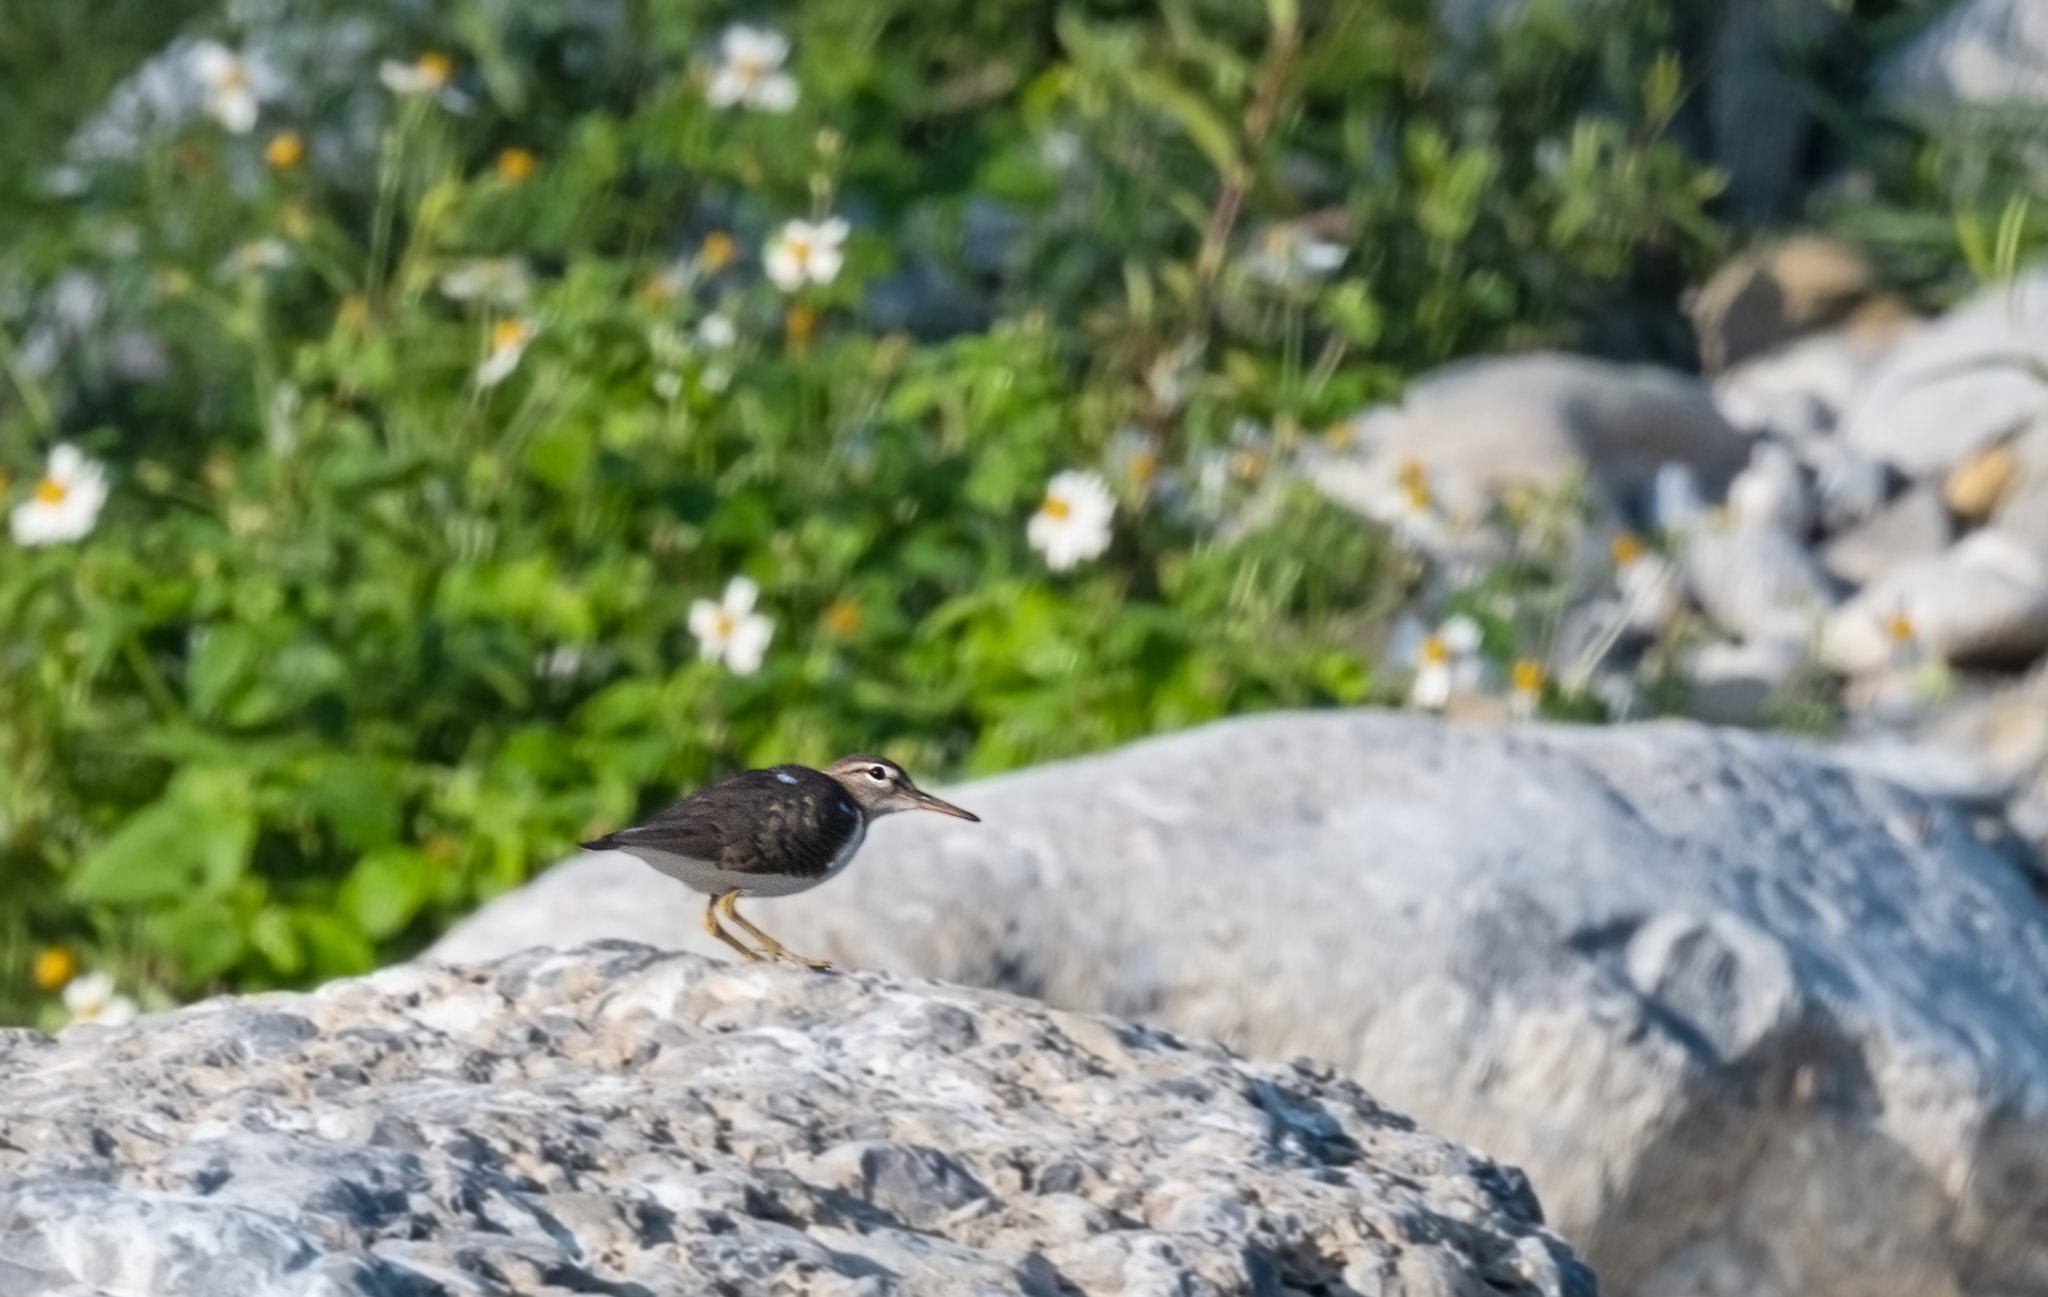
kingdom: Animalia
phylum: Chordata
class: Aves
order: Charadriiformes
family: Scolopacidae
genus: Actitis
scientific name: Actitis macularius
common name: Spotted sandpiper
